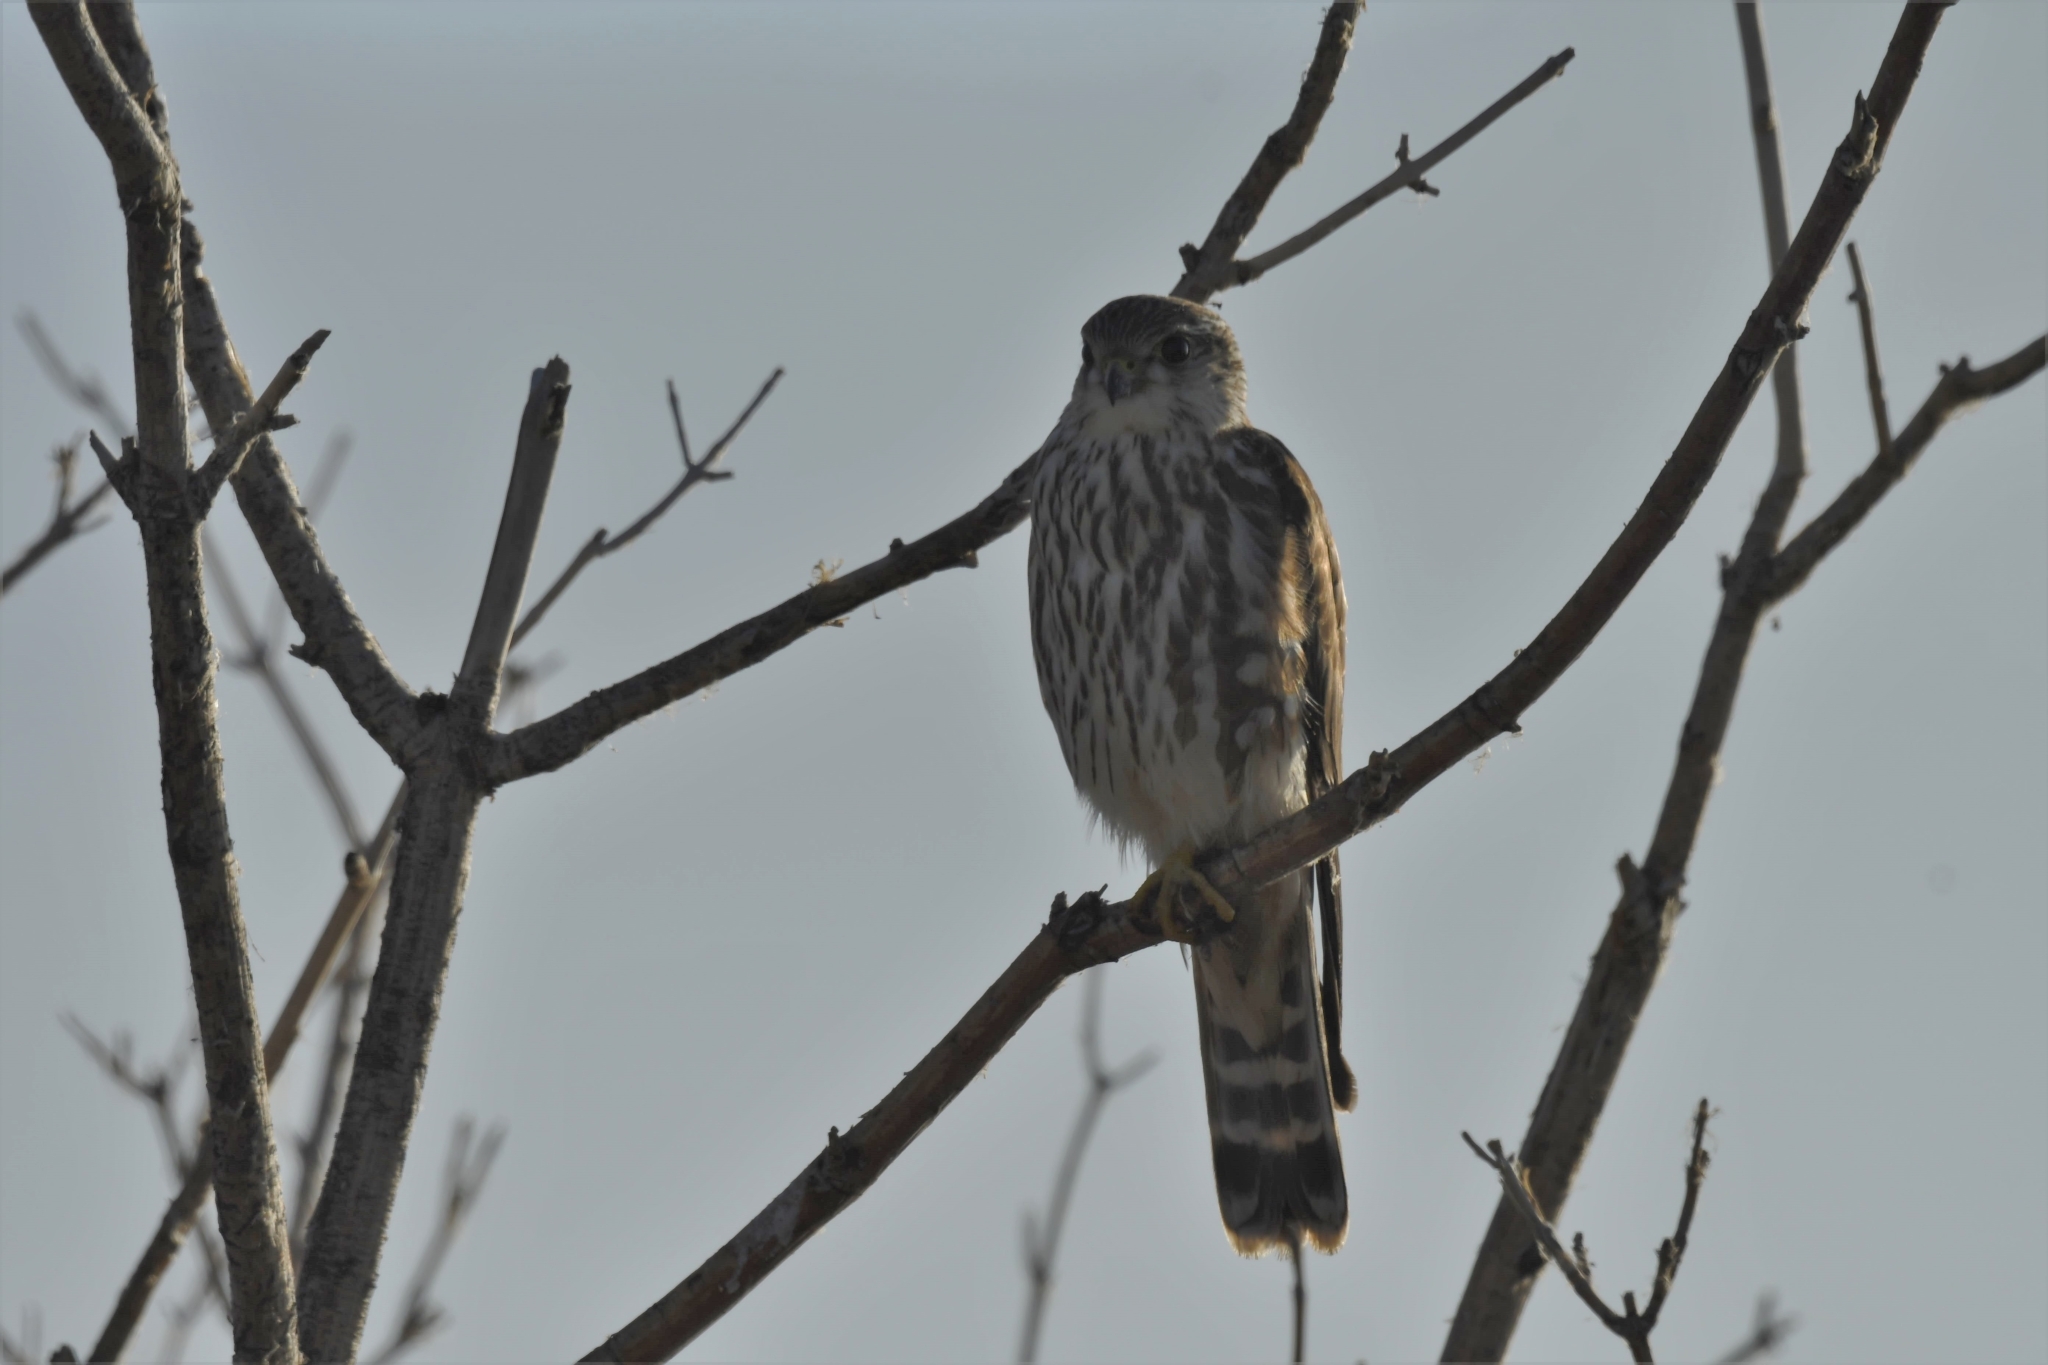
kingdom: Animalia
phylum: Chordata
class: Aves
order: Falconiformes
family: Falconidae
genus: Falco
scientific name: Falco columbarius
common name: Merlin
